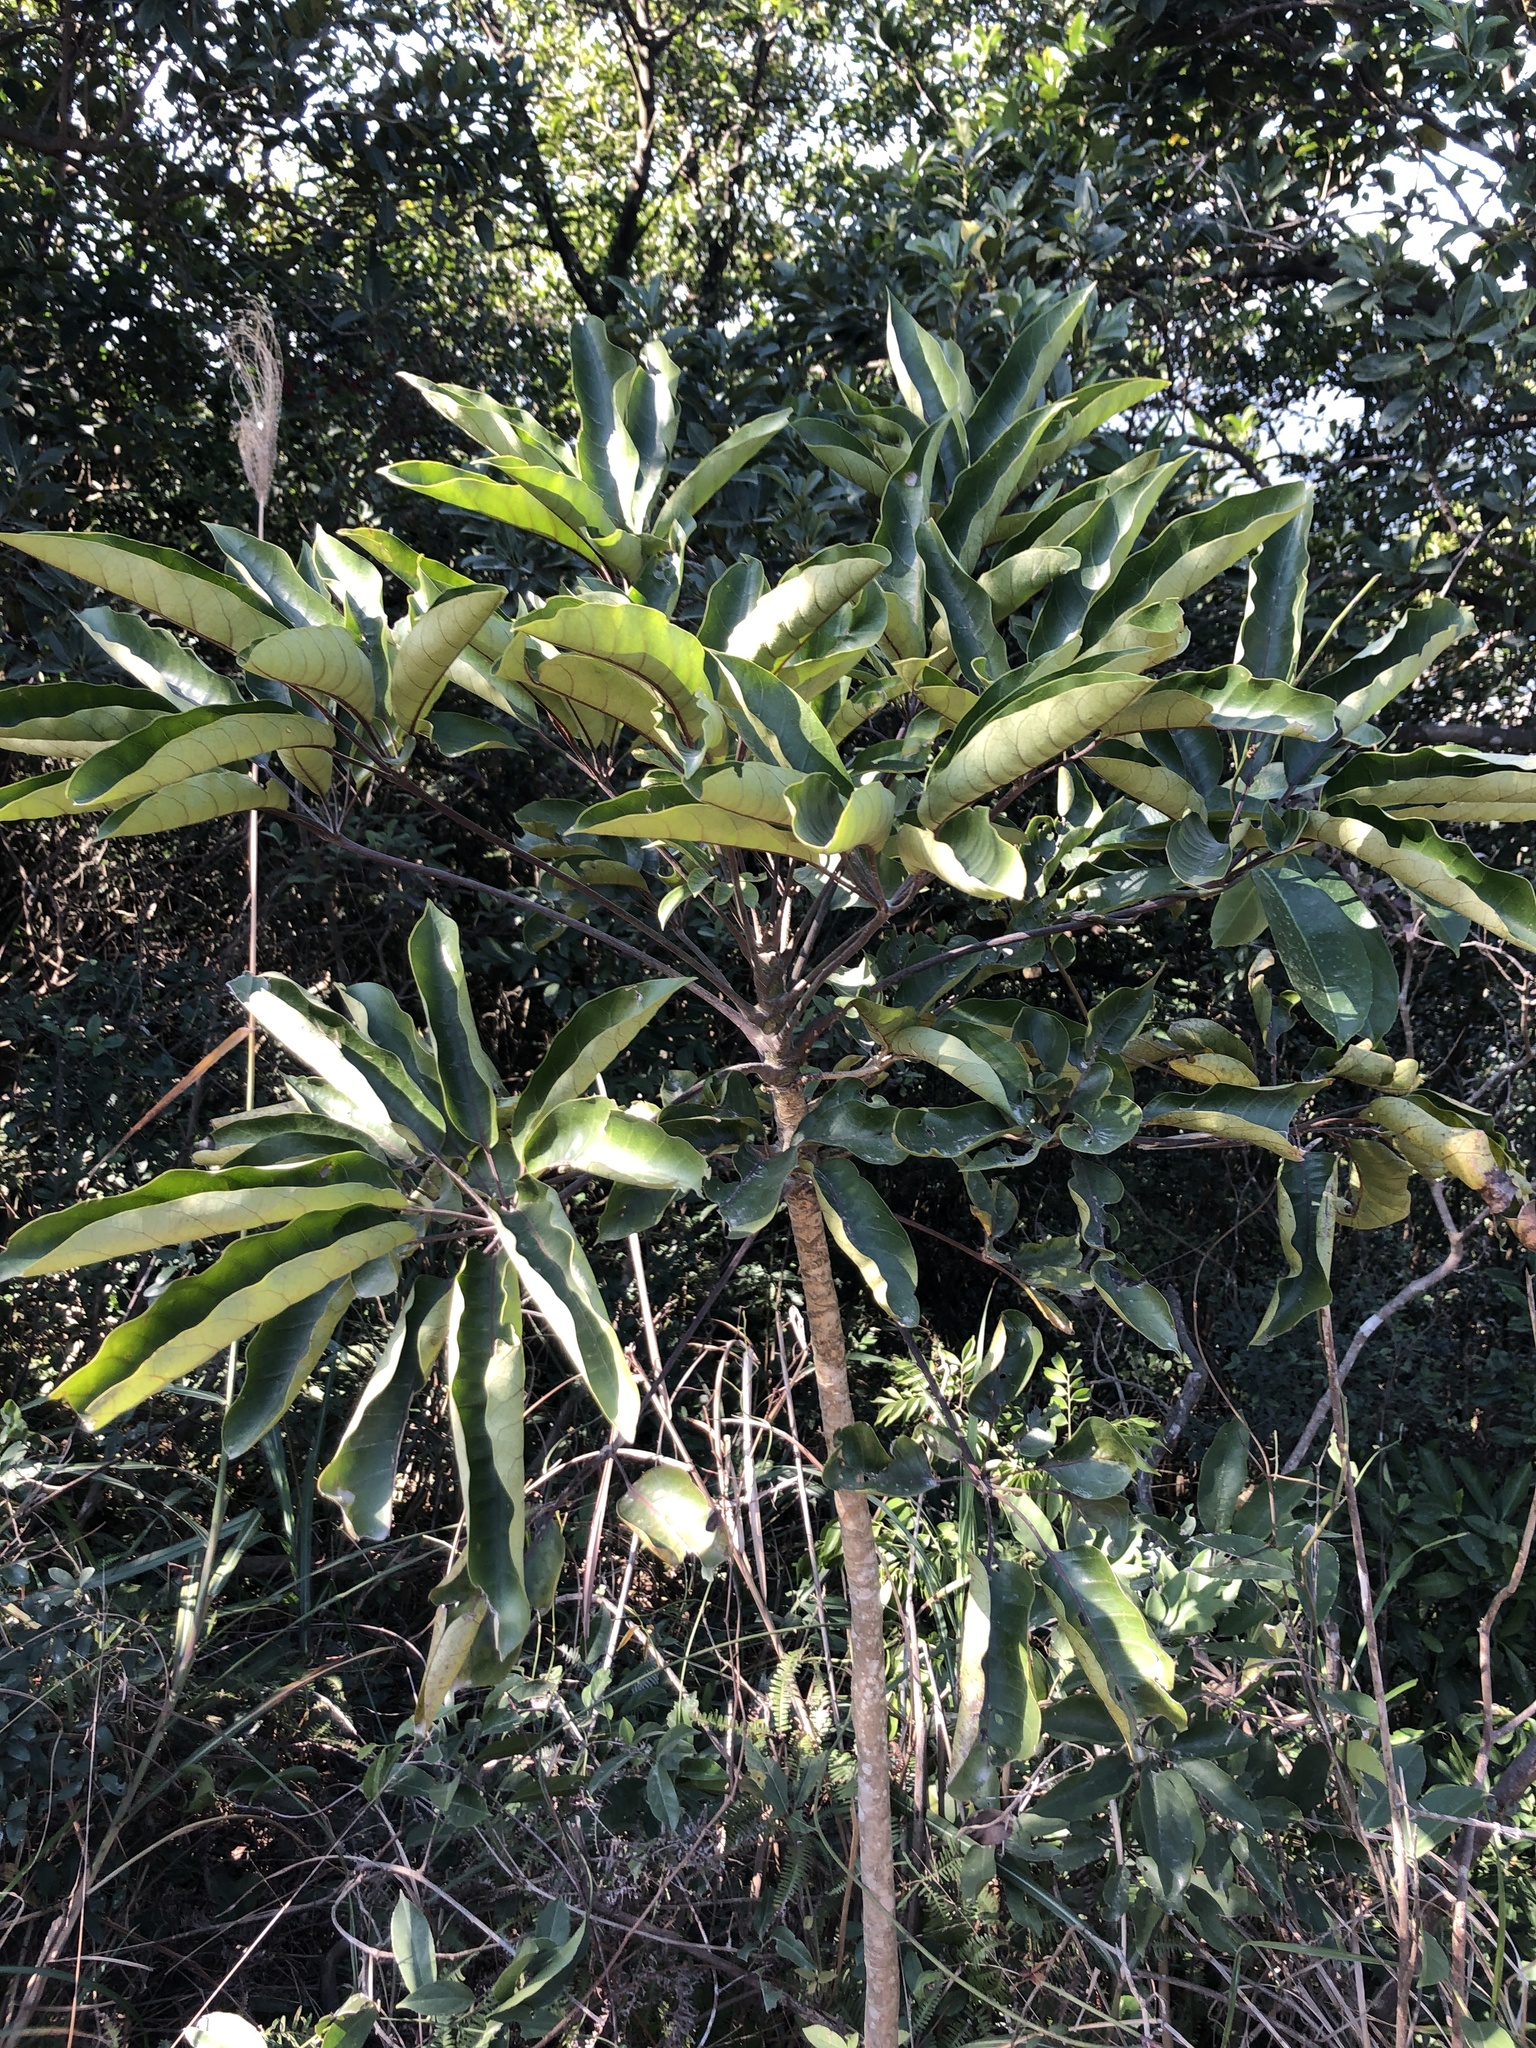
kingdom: Plantae
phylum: Tracheophyta
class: Magnoliopsida
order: Apiales
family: Araliaceae
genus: Heptapleurum
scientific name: Heptapleurum heptaphyllum
